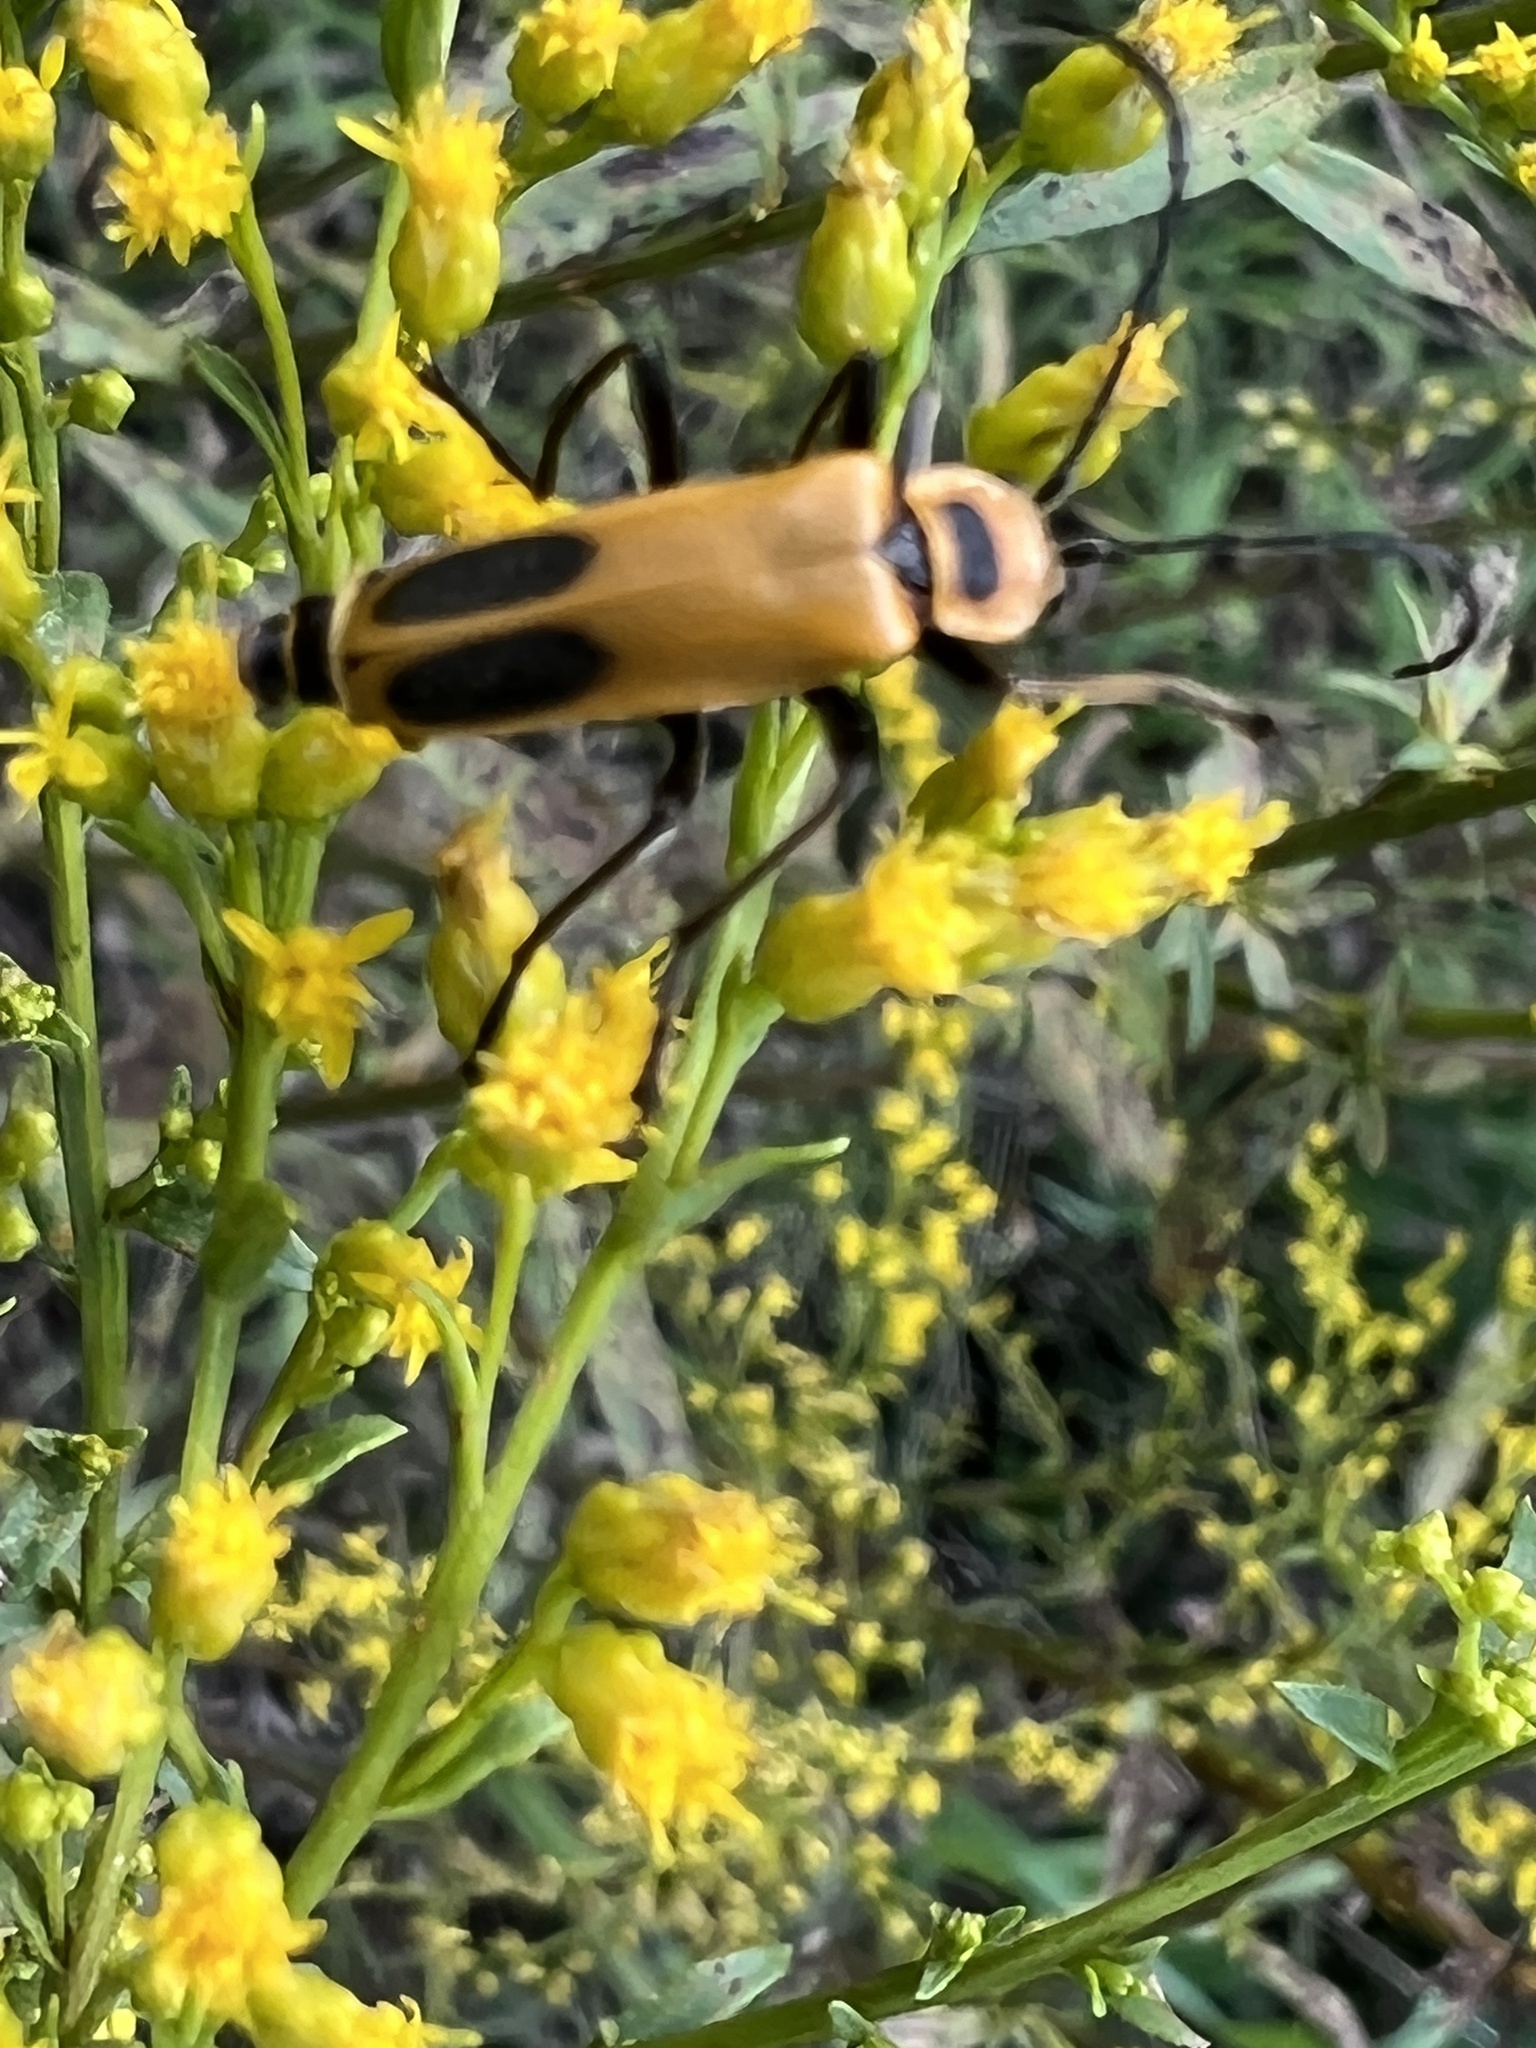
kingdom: Animalia
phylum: Arthropoda
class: Insecta
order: Coleoptera
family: Cantharidae
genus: Chauliognathus
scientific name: Chauliognathus pensylvanicus
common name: Goldenrod soldier beetle
